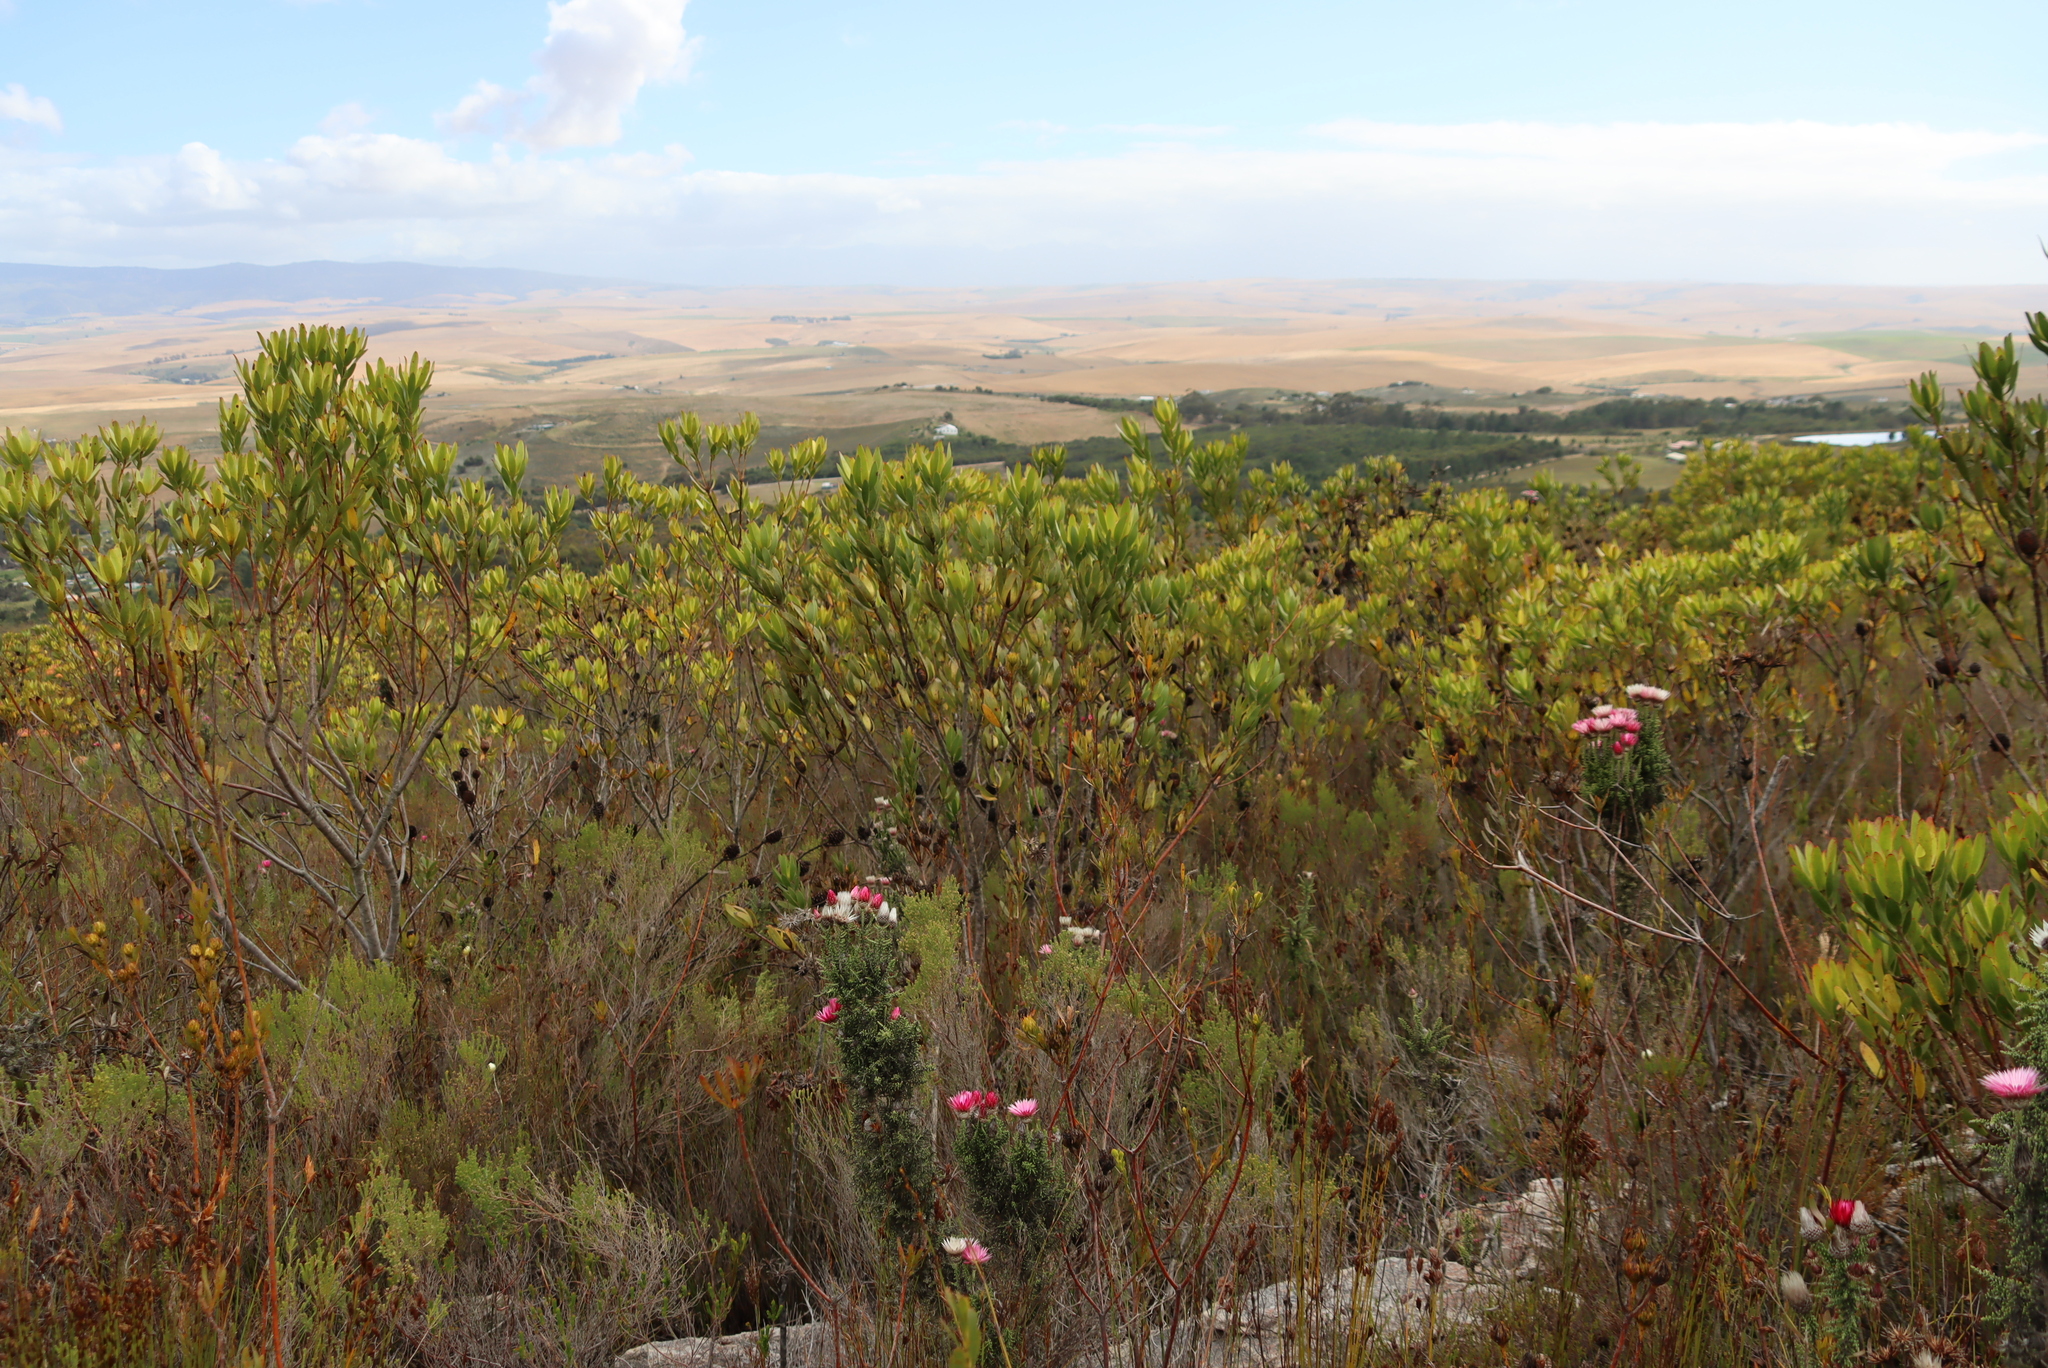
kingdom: Plantae
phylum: Tracheophyta
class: Magnoliopsida
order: Proteales
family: Proteaceae
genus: Leucadendron
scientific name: Leucadendron gandogeri
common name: Broad-leaf conebush
